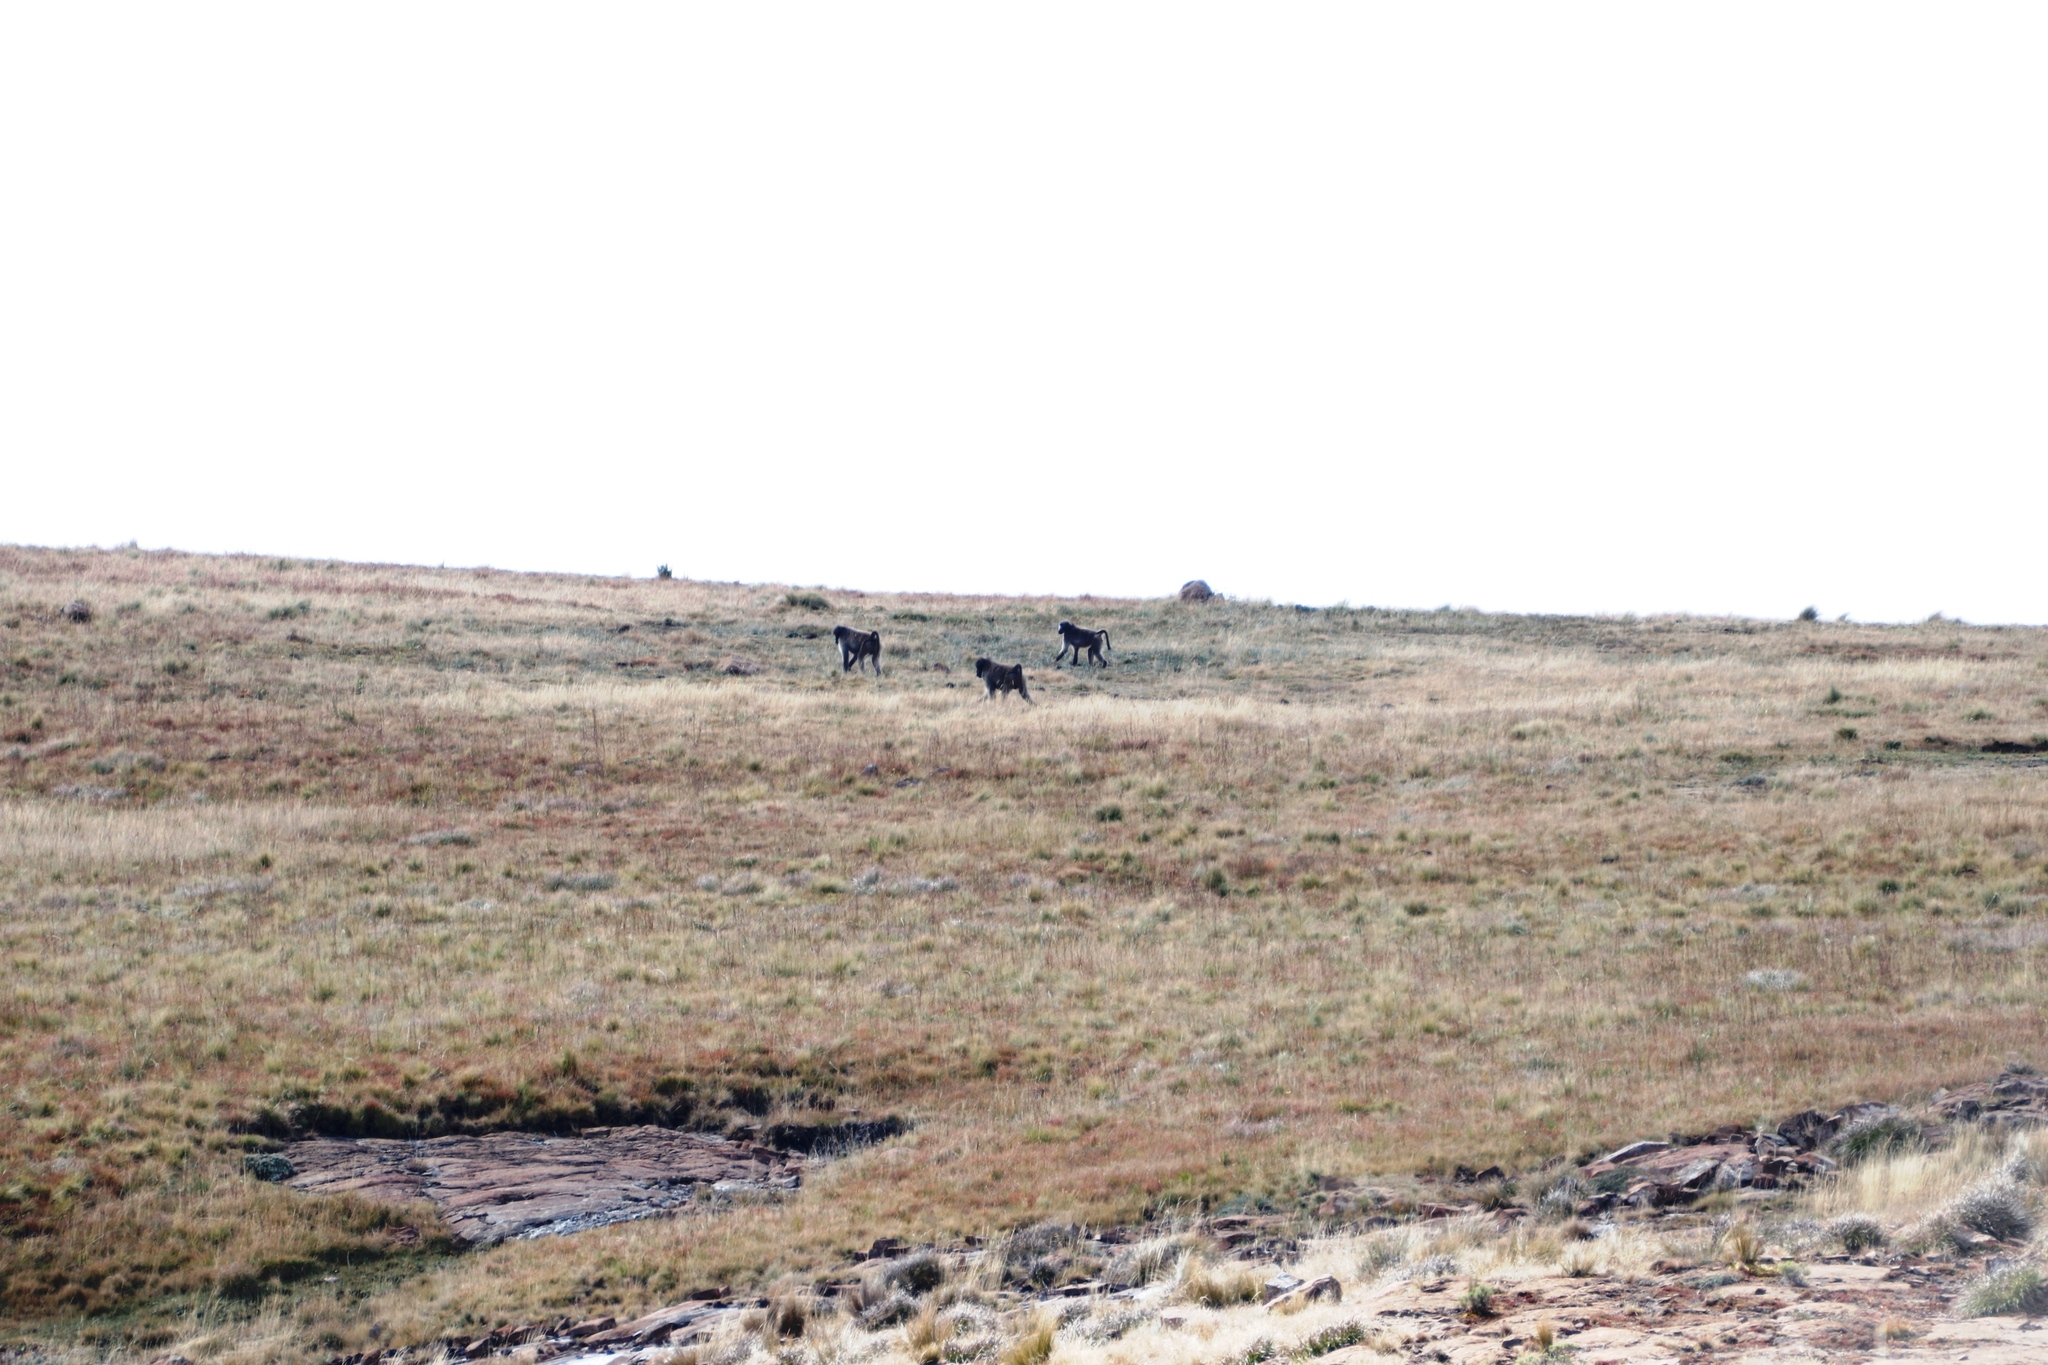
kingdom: Animalia
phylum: Chordata
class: Mammalia
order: Primates
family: Cercopithecidae
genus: Papio
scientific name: Papio ursinus
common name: Chacma baboon
